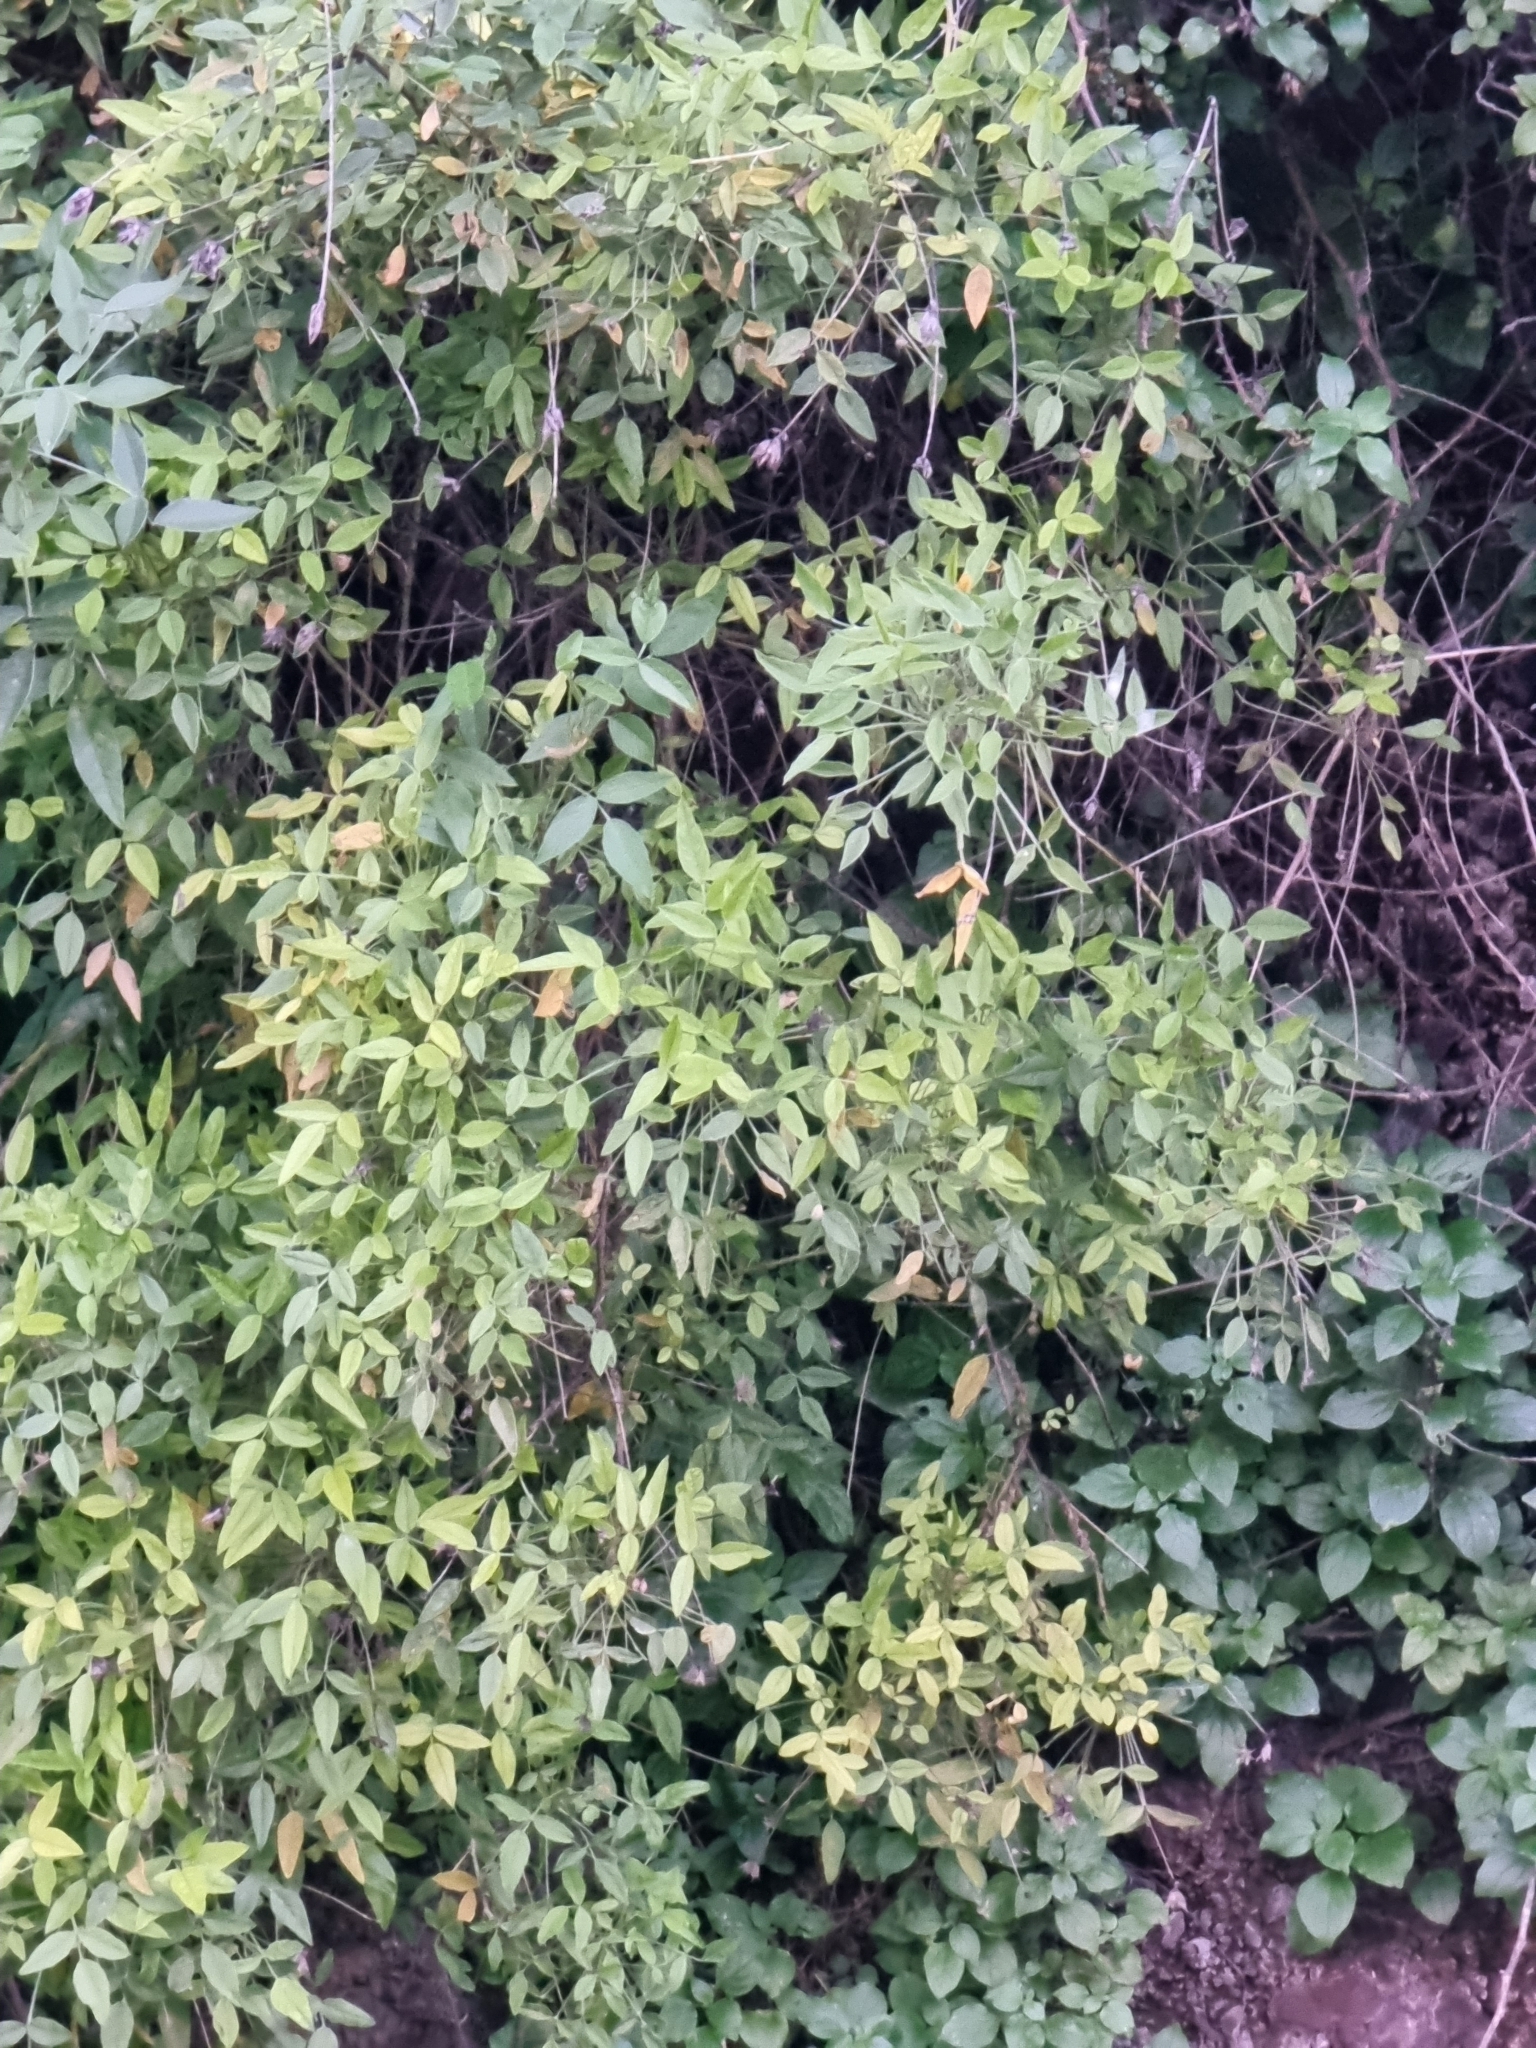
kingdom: Plantae
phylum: Tracheophyta
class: Magnoliopsida
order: Fabales
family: Fabaceae
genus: Bituminaria
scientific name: Bituminaria bituminosa
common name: Arabian pea
